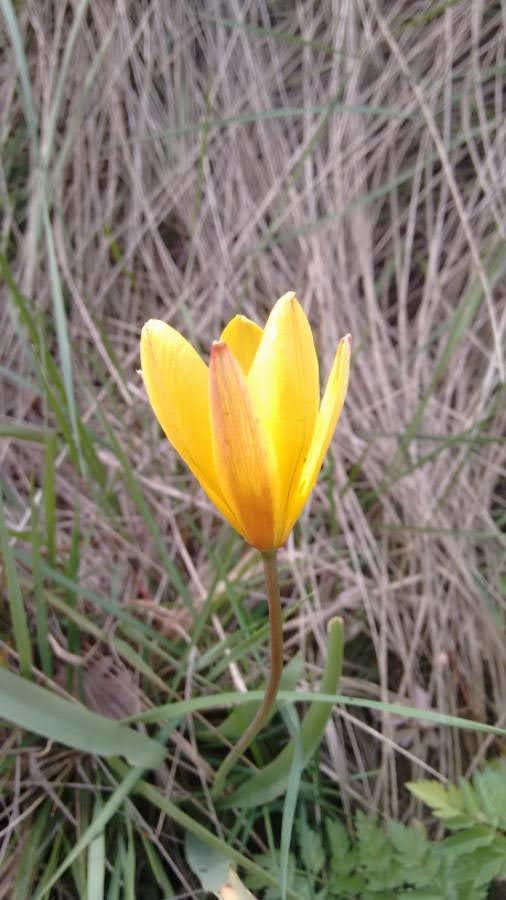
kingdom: Plantae
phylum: Tracheophyta
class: Liliopsida
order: Liliales
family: Liliaceae
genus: Tulipa
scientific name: Tulipa sylvestris
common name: Wild tulip
